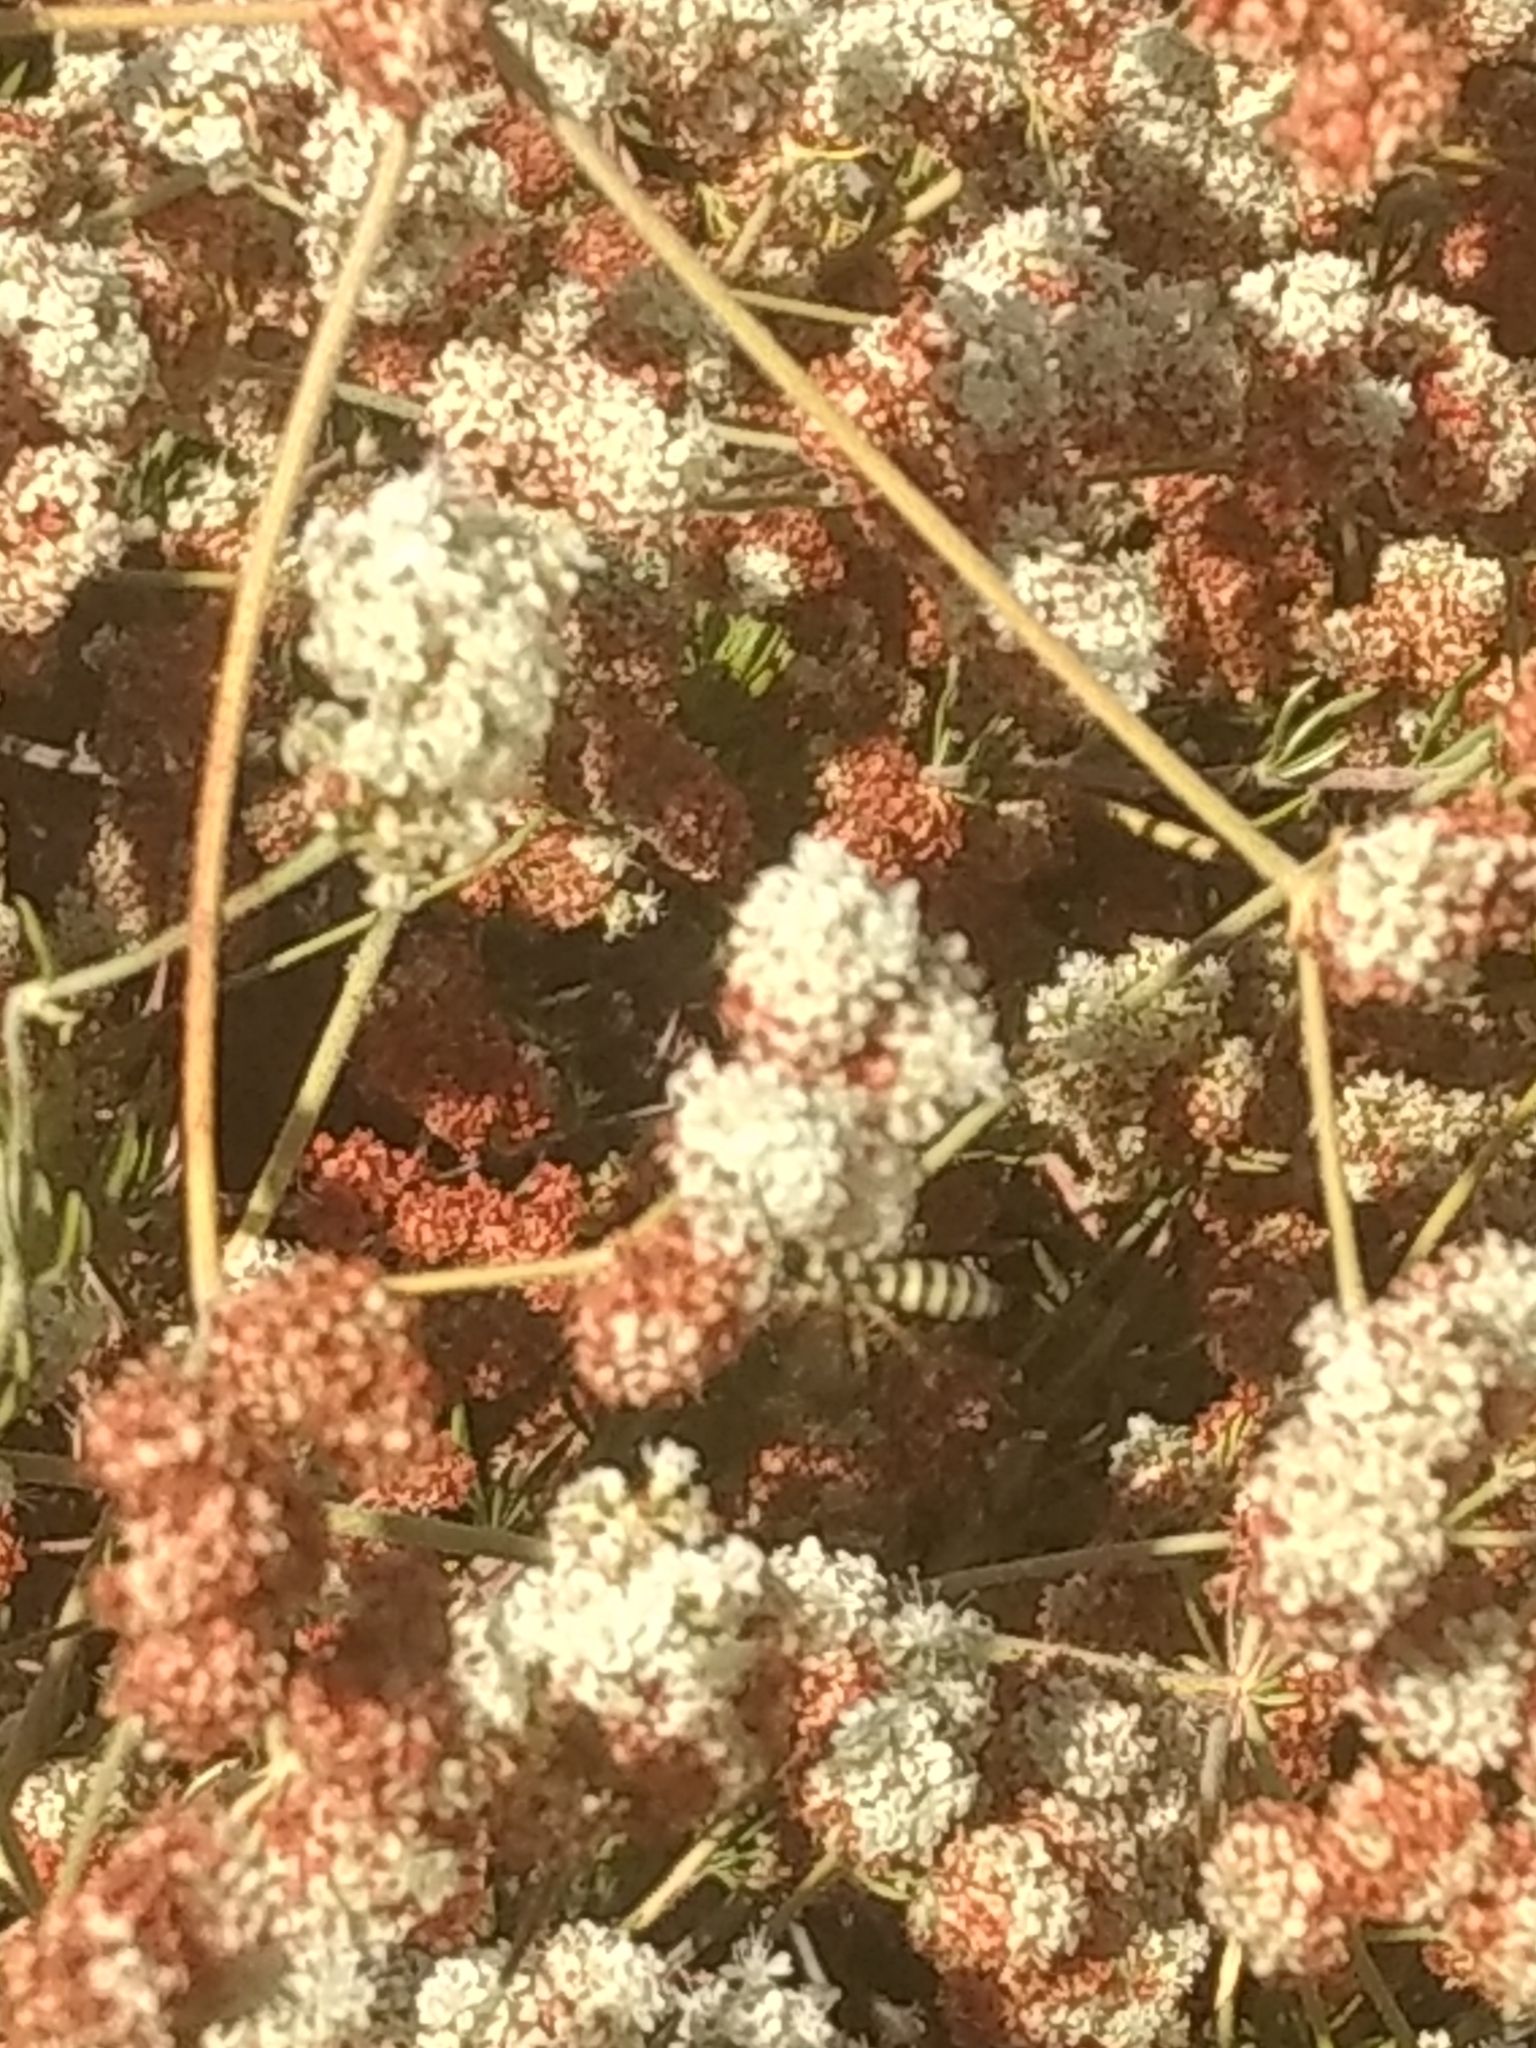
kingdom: Plantae
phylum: Tracheophyta
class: Magnoliopsida
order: Caryophyllales
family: Polygonaceae
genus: Eriogonum
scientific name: Eriogonum fasciculatum
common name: California wild buckwheat
